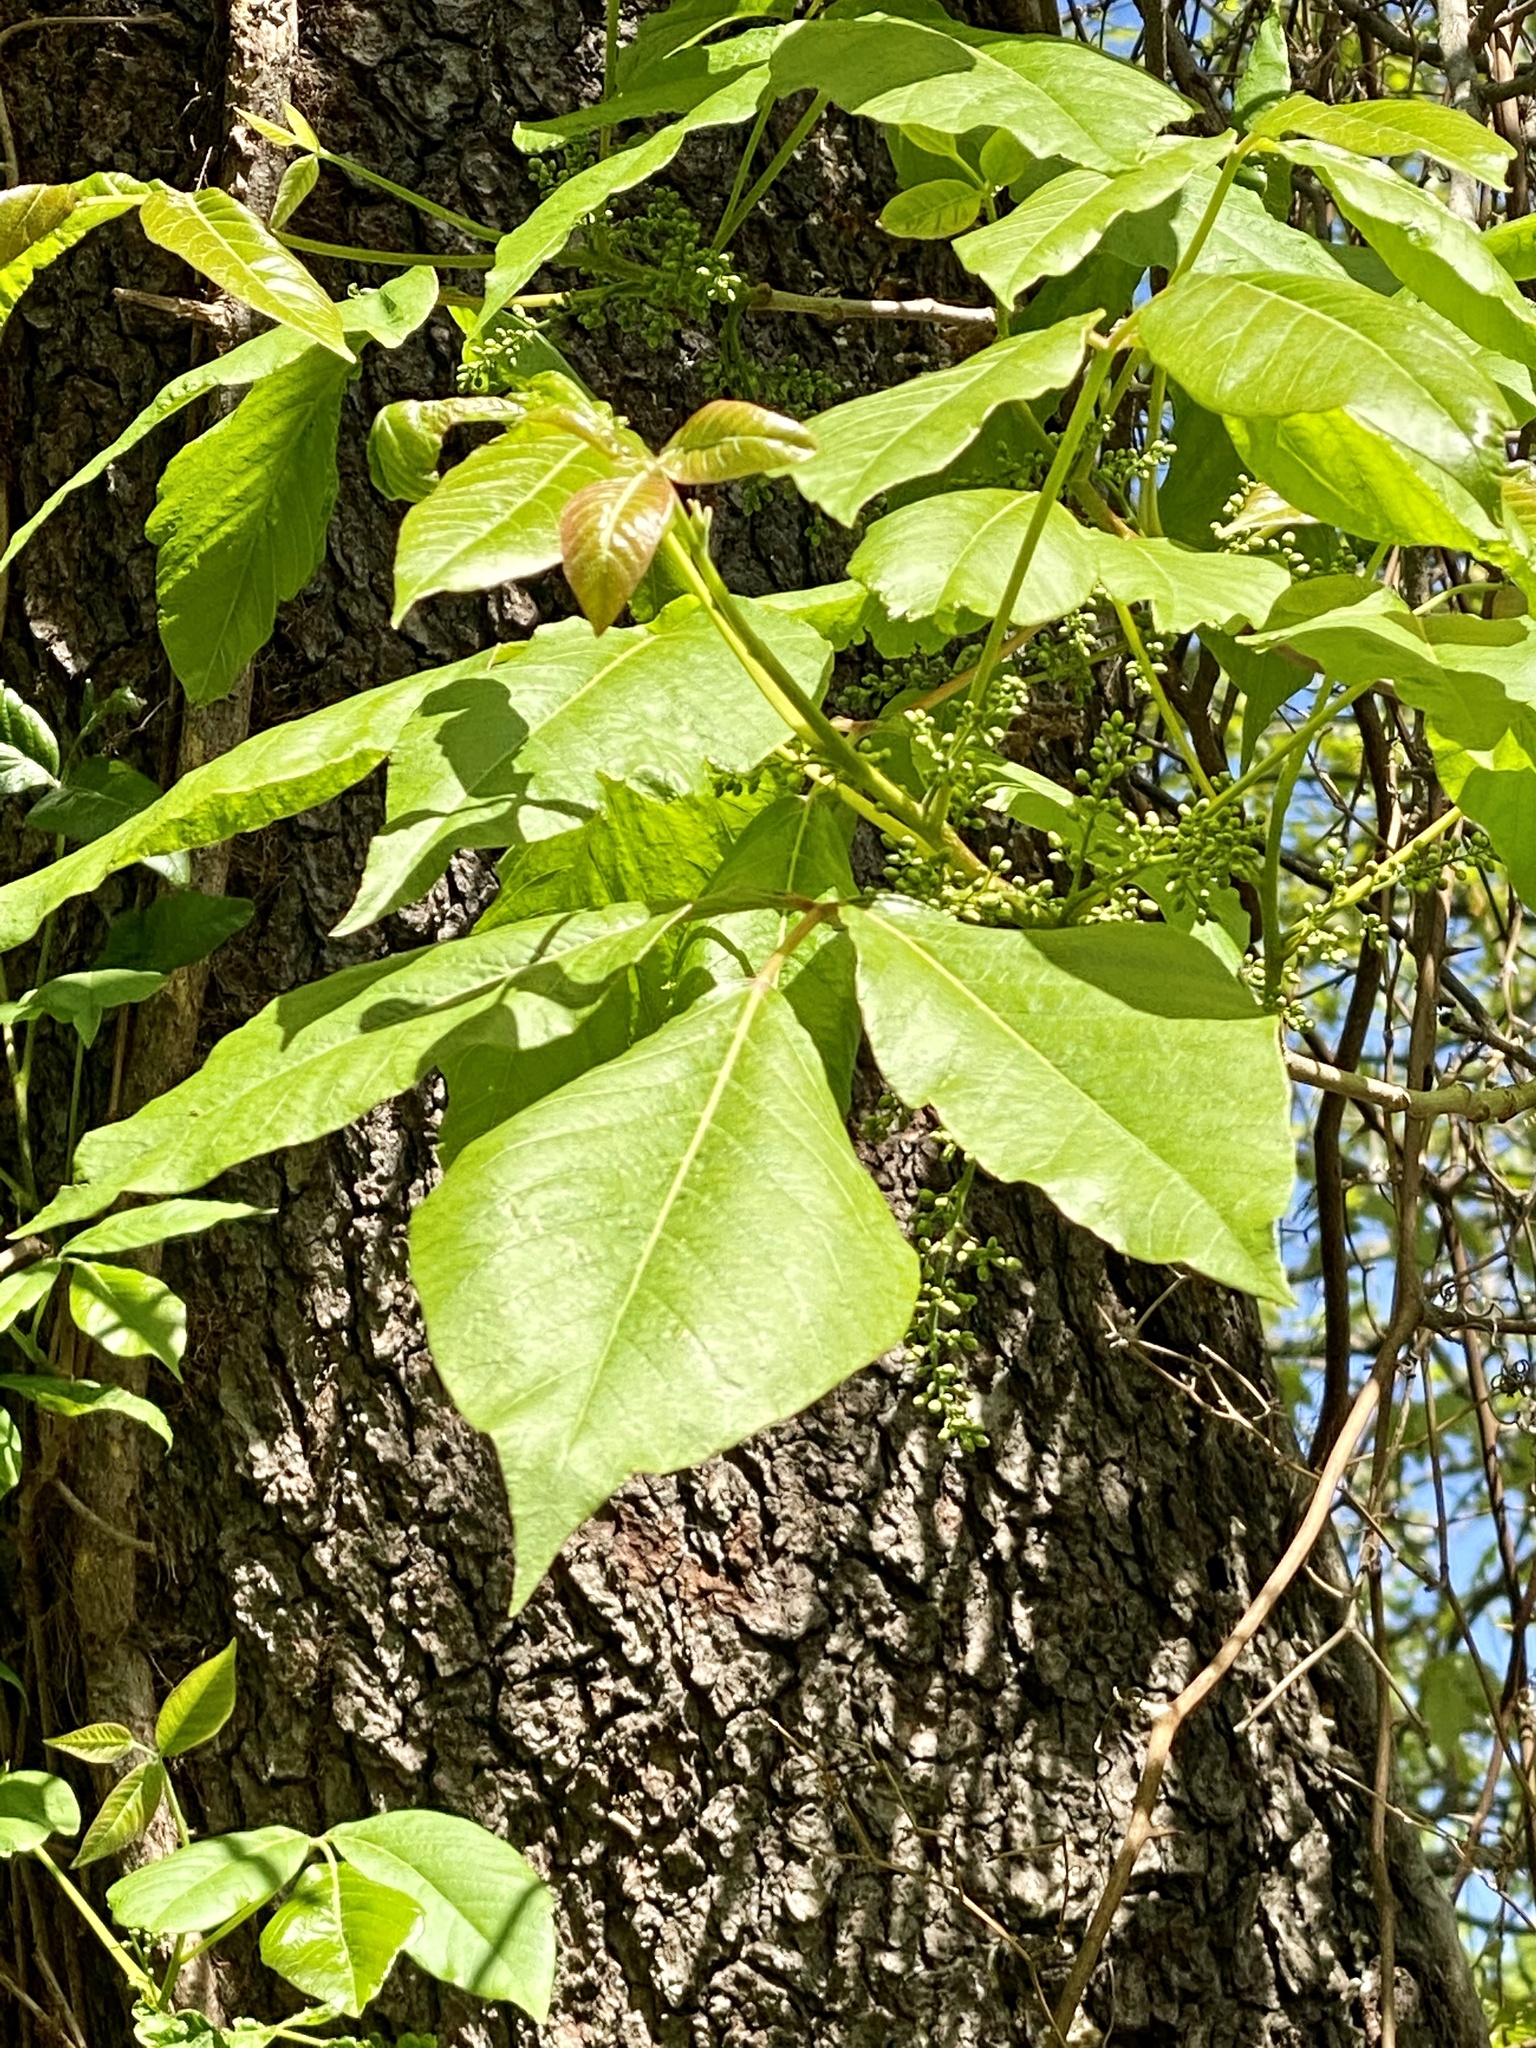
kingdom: Plantae
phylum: Tracheophyta
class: Magnoliopsida
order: Sapindales
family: Anacardiaceae
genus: Toxicodendron
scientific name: Toxicodendron radicans
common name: Poison ivy
